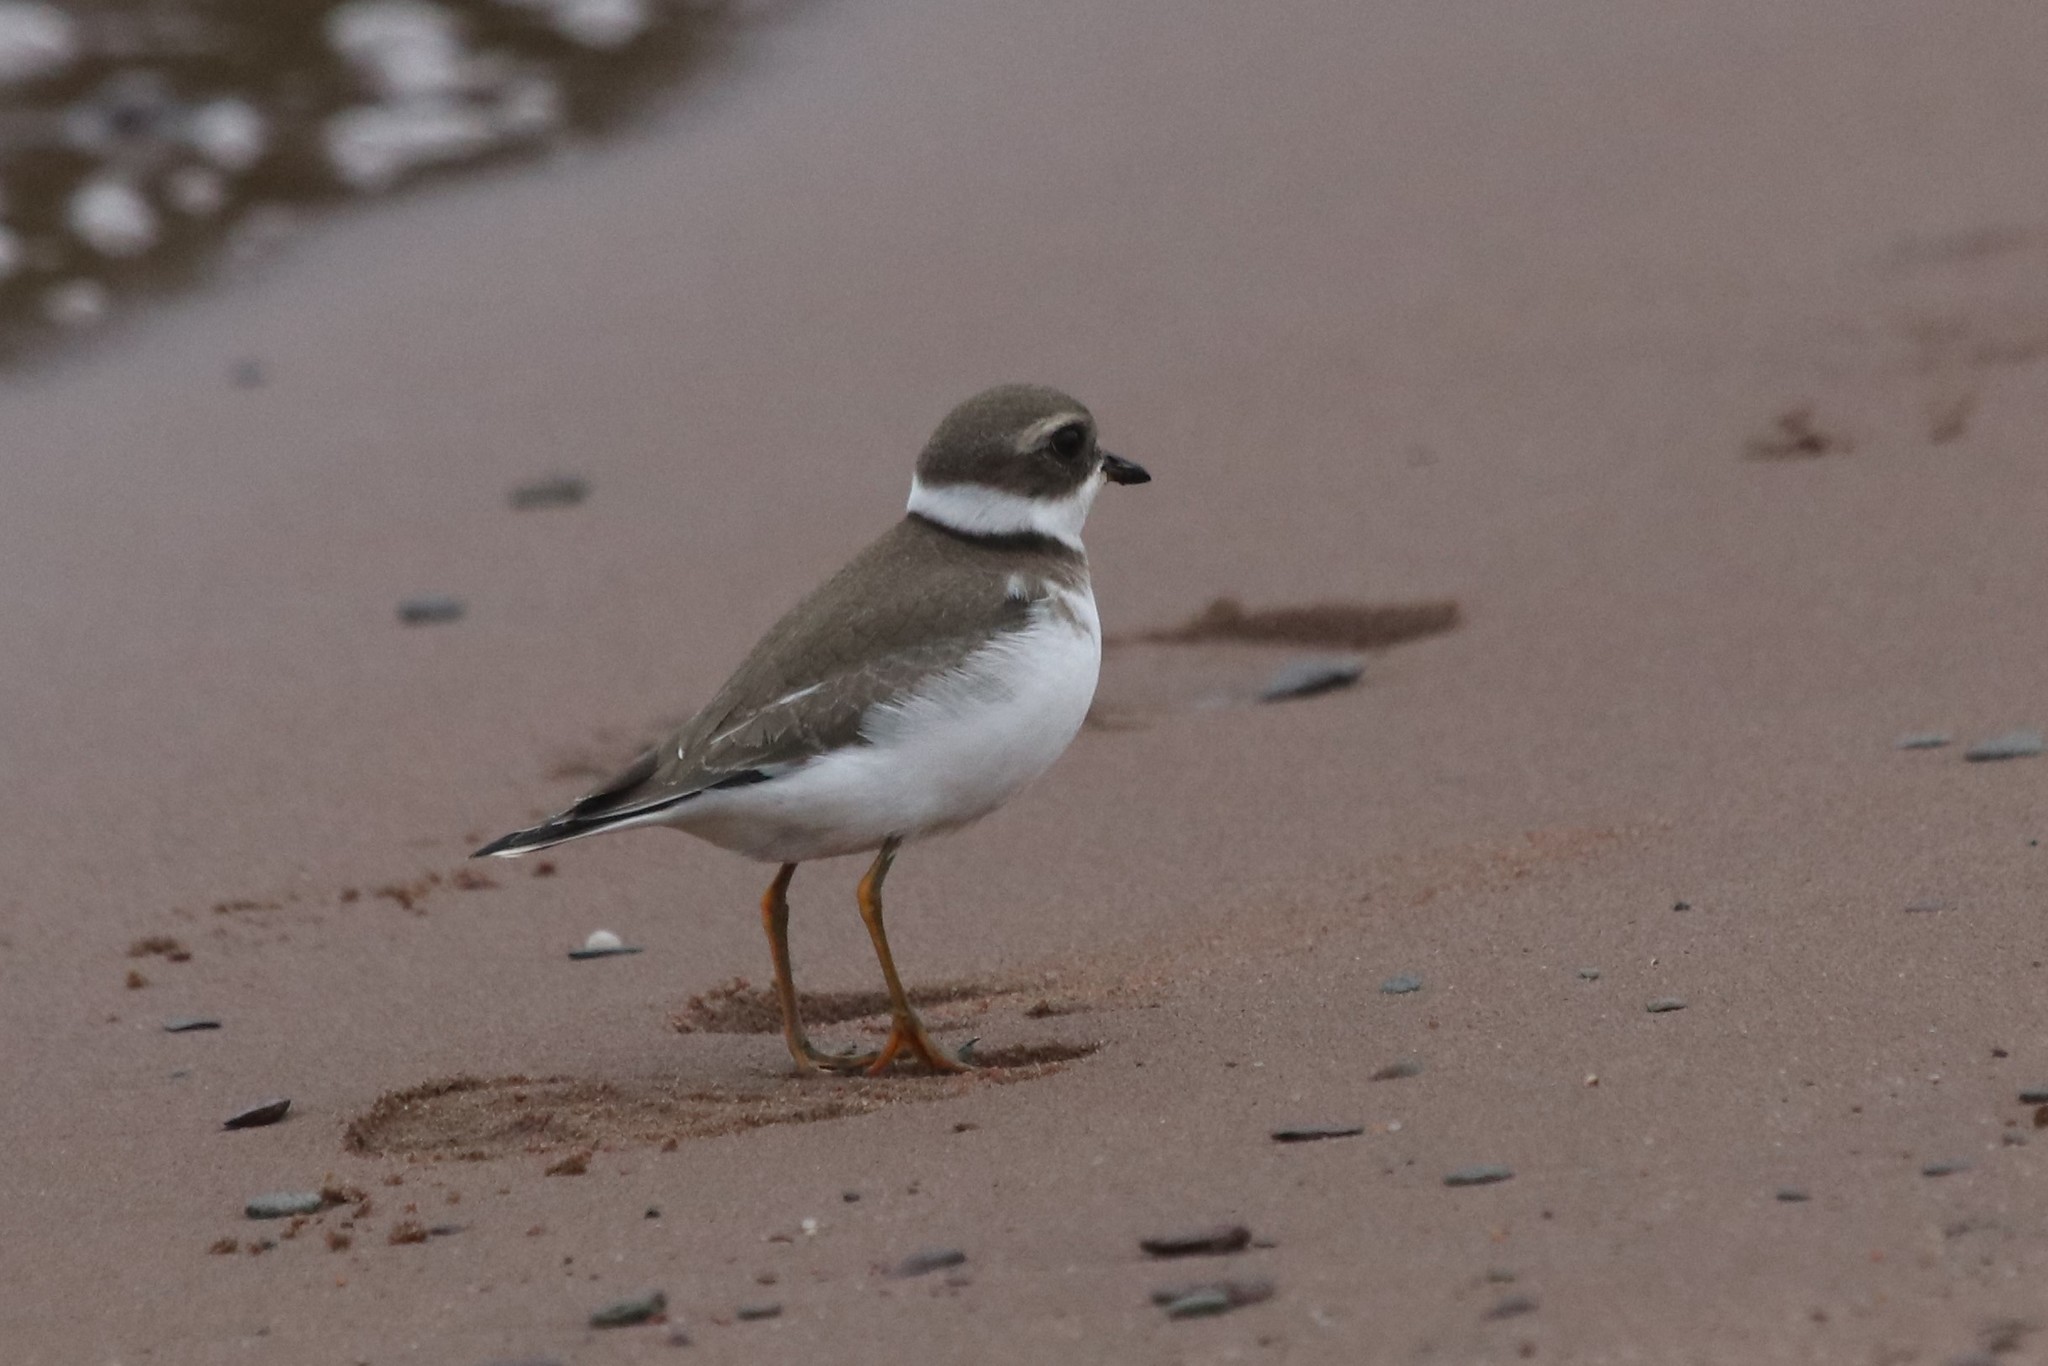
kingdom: Animalia
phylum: Chordata
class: Aves
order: Charadriiformes
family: Charadriidae
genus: Charadrius
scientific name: Charadrius semipalmatus
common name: Semipalmated plover
